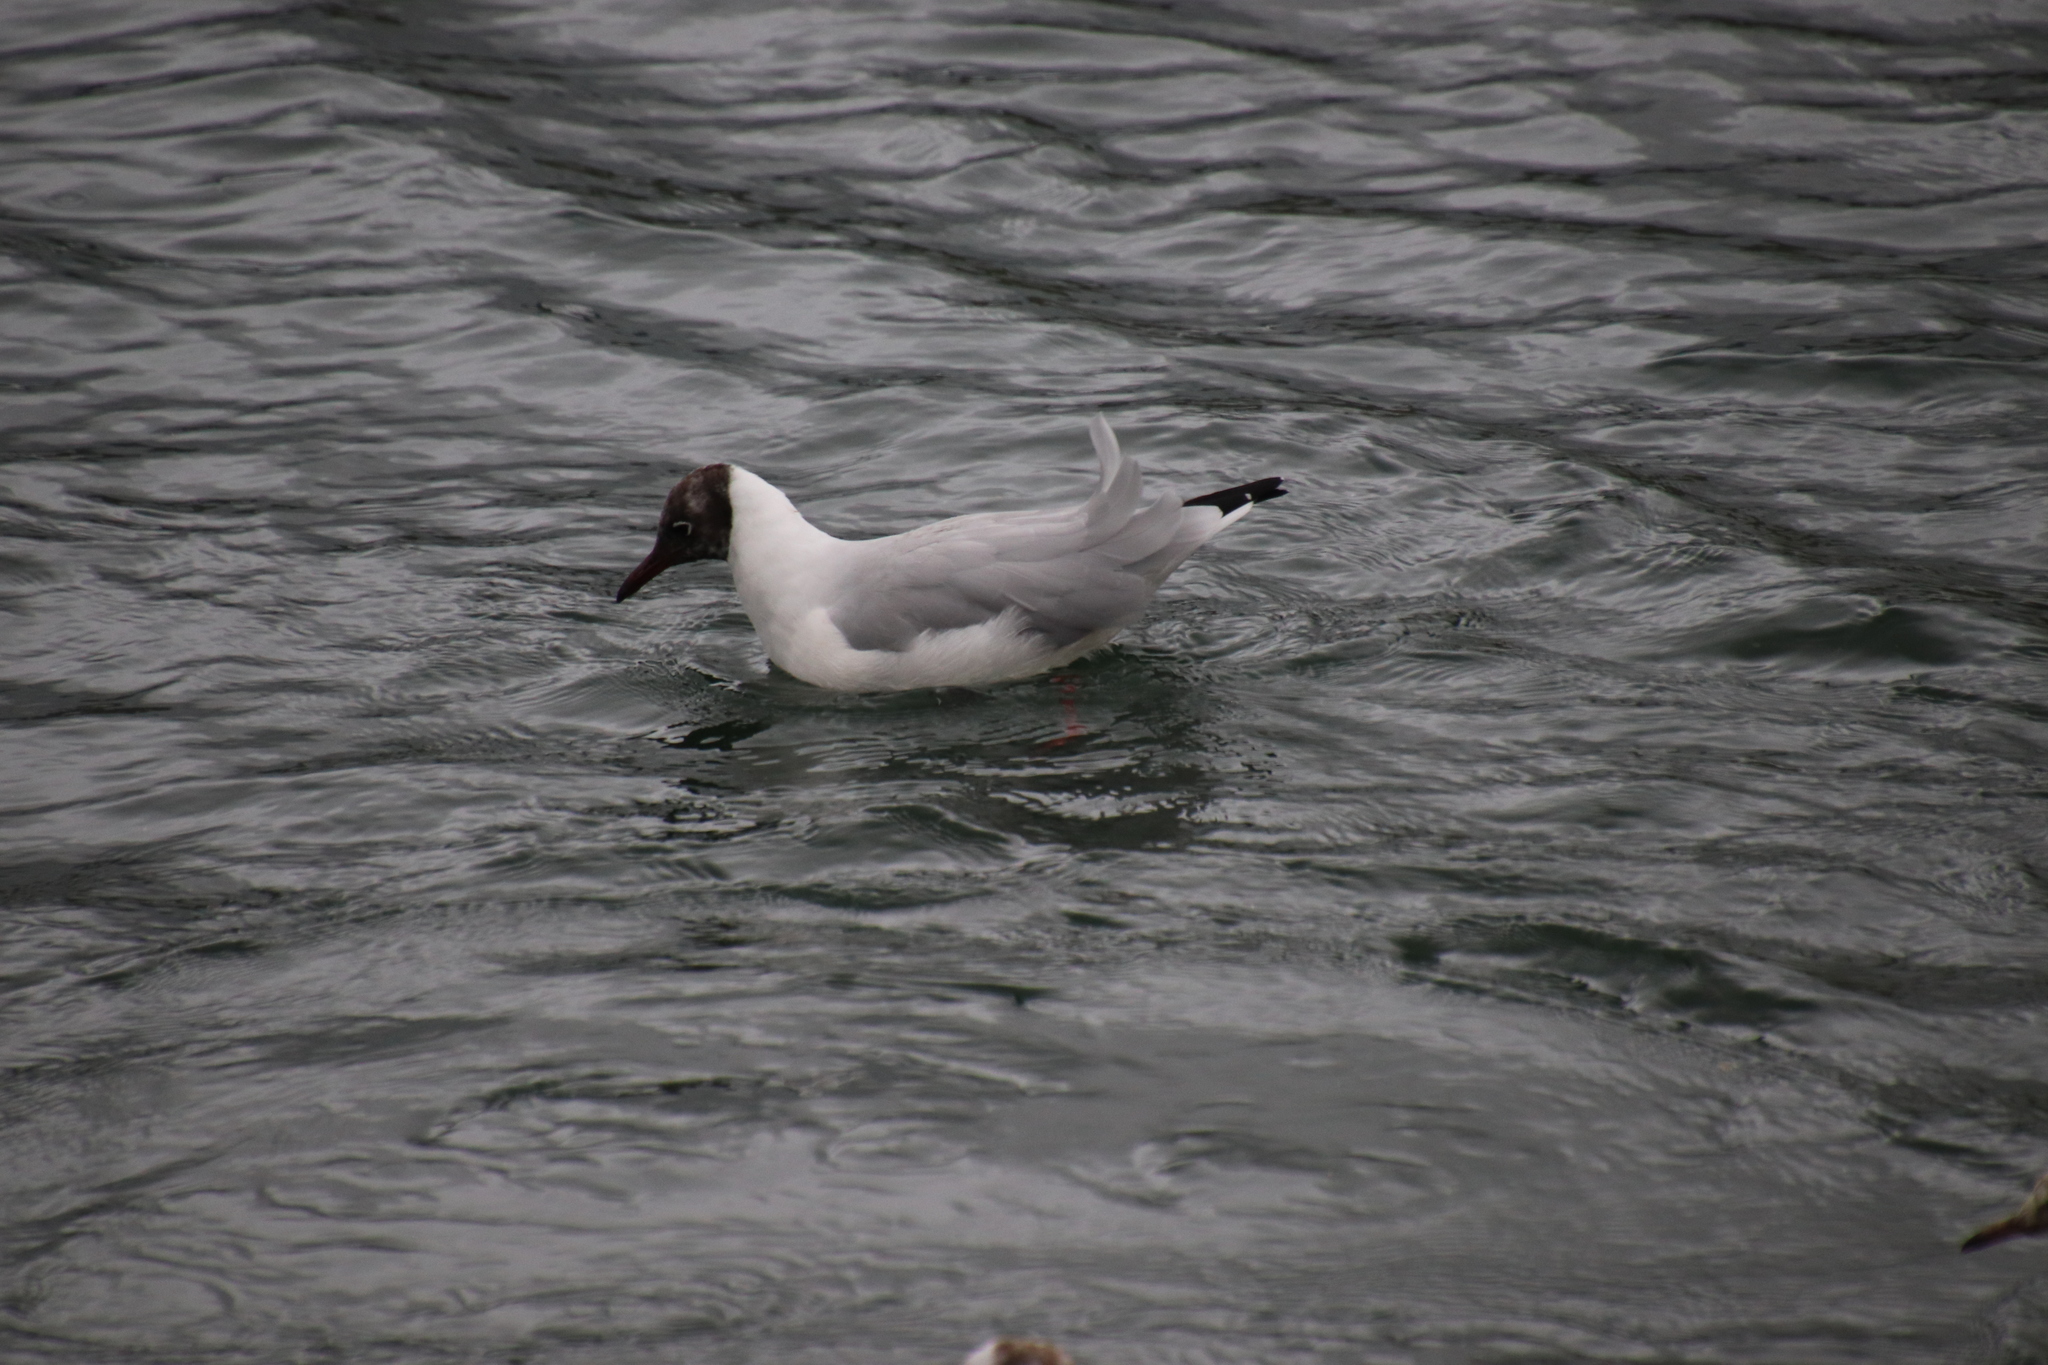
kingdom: Animalia
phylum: Chordata
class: Aves
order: Charadriiformes
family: Laridae
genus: Chroicocephalus
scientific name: Chroicocephalus ridibundus
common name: Black-headed gull
